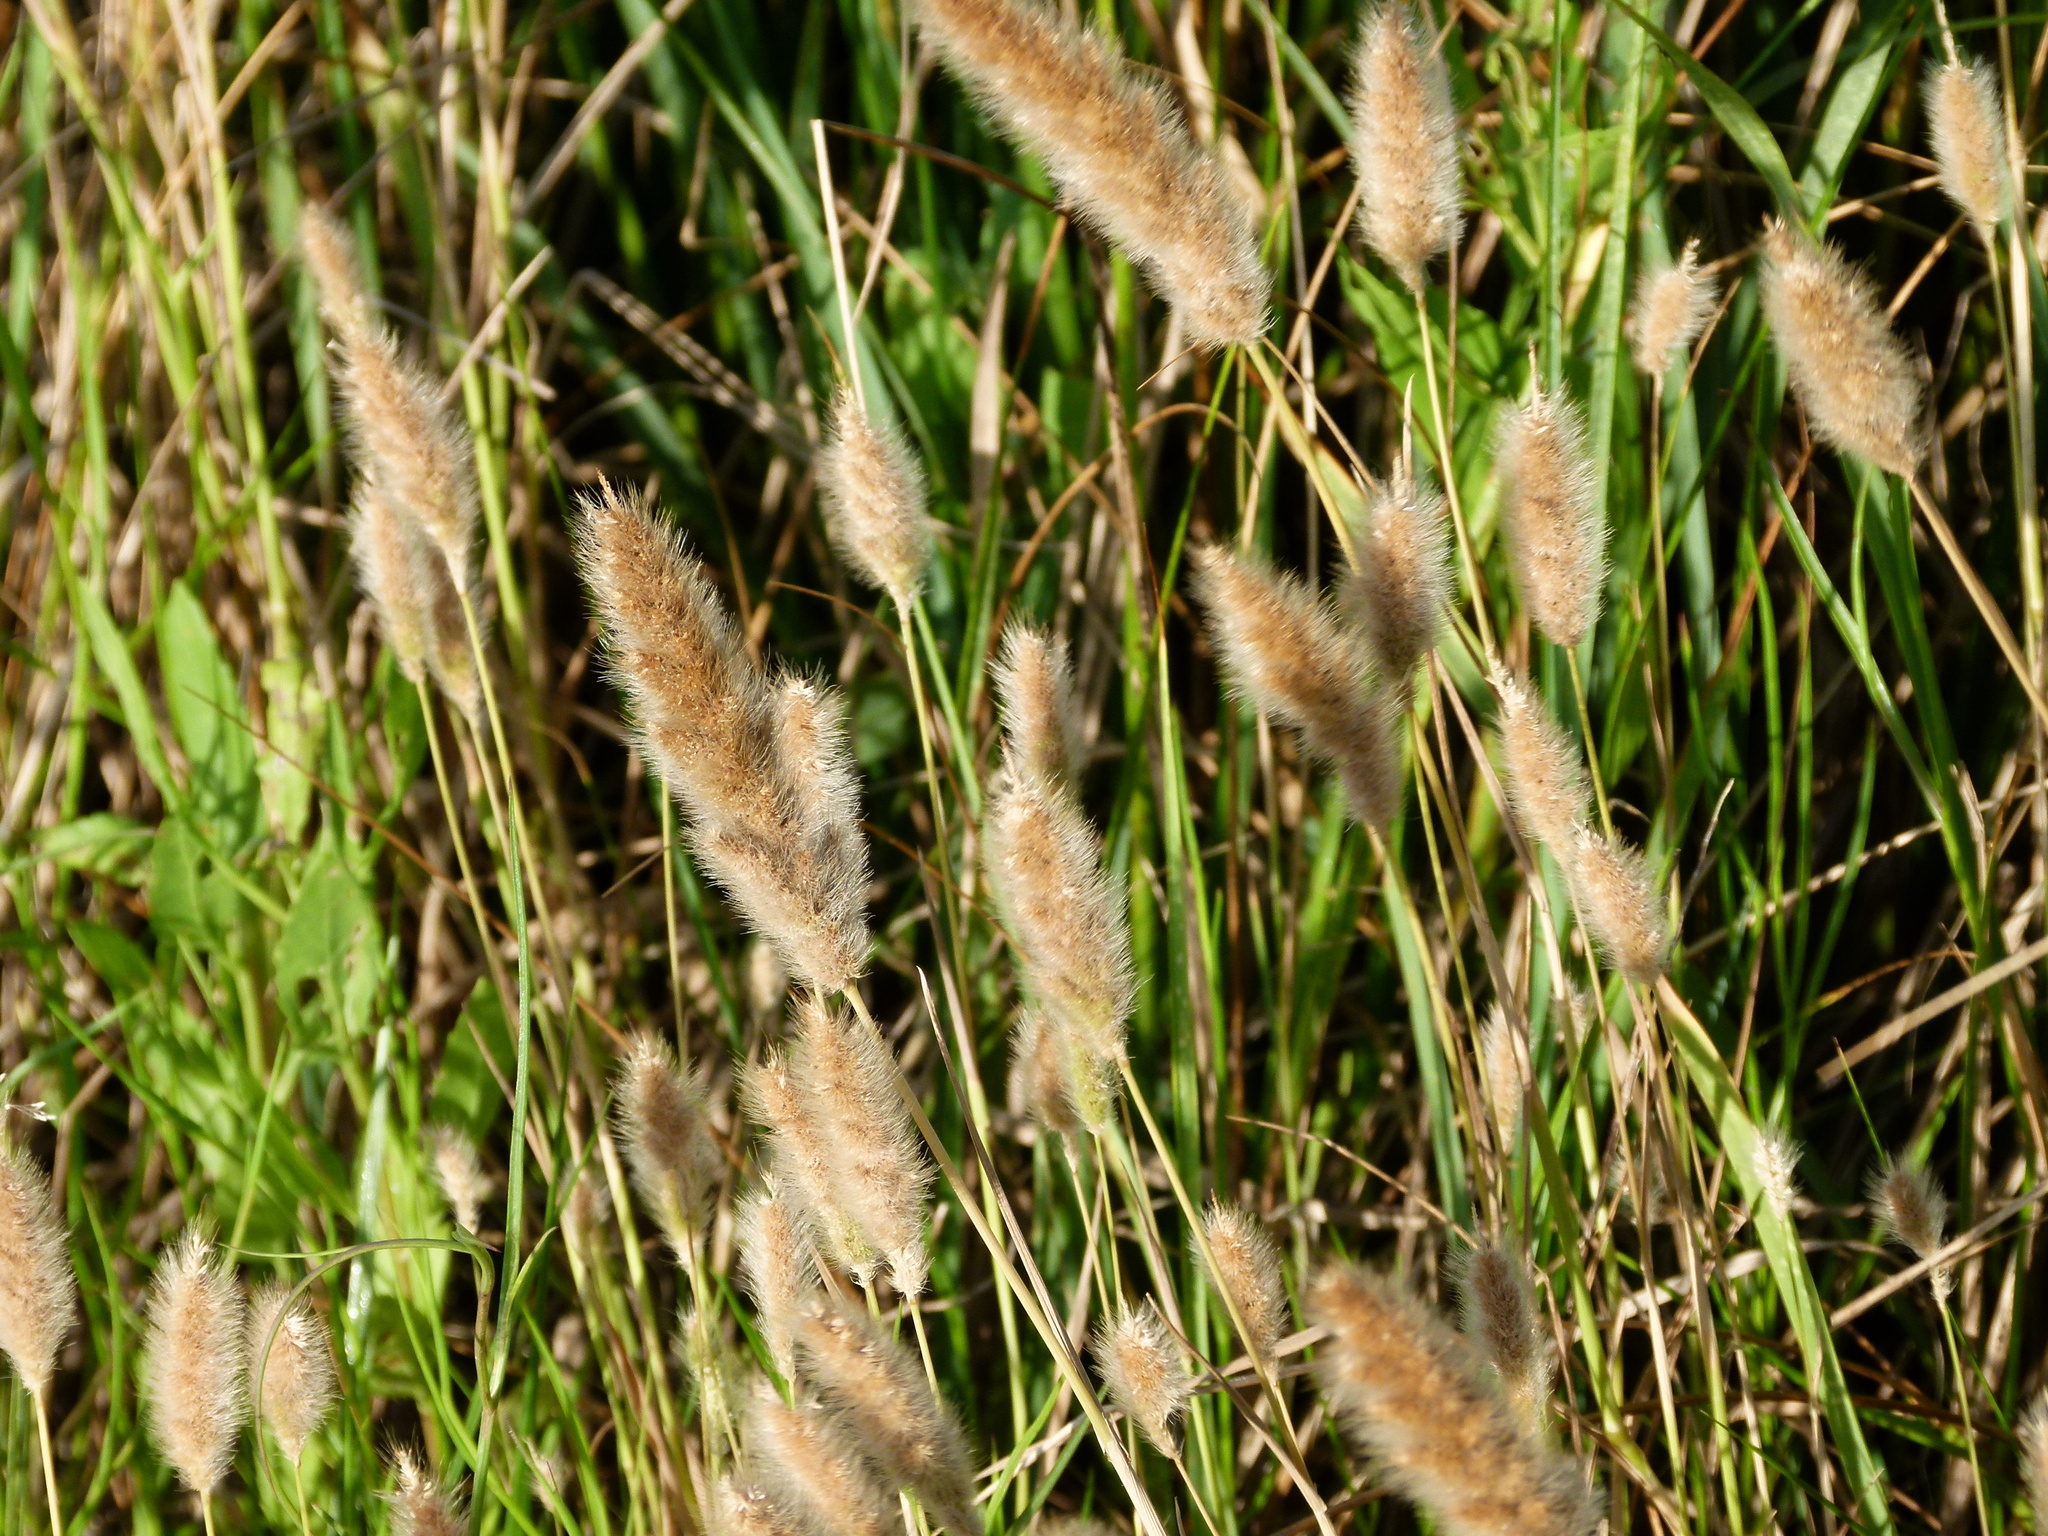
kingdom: Plantae
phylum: Tracheophyta
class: Liliopsida
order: Poales
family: Poaceae
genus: Polypogon
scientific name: Polypogon monspeliensis
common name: Annual rabbitsfoot grass
